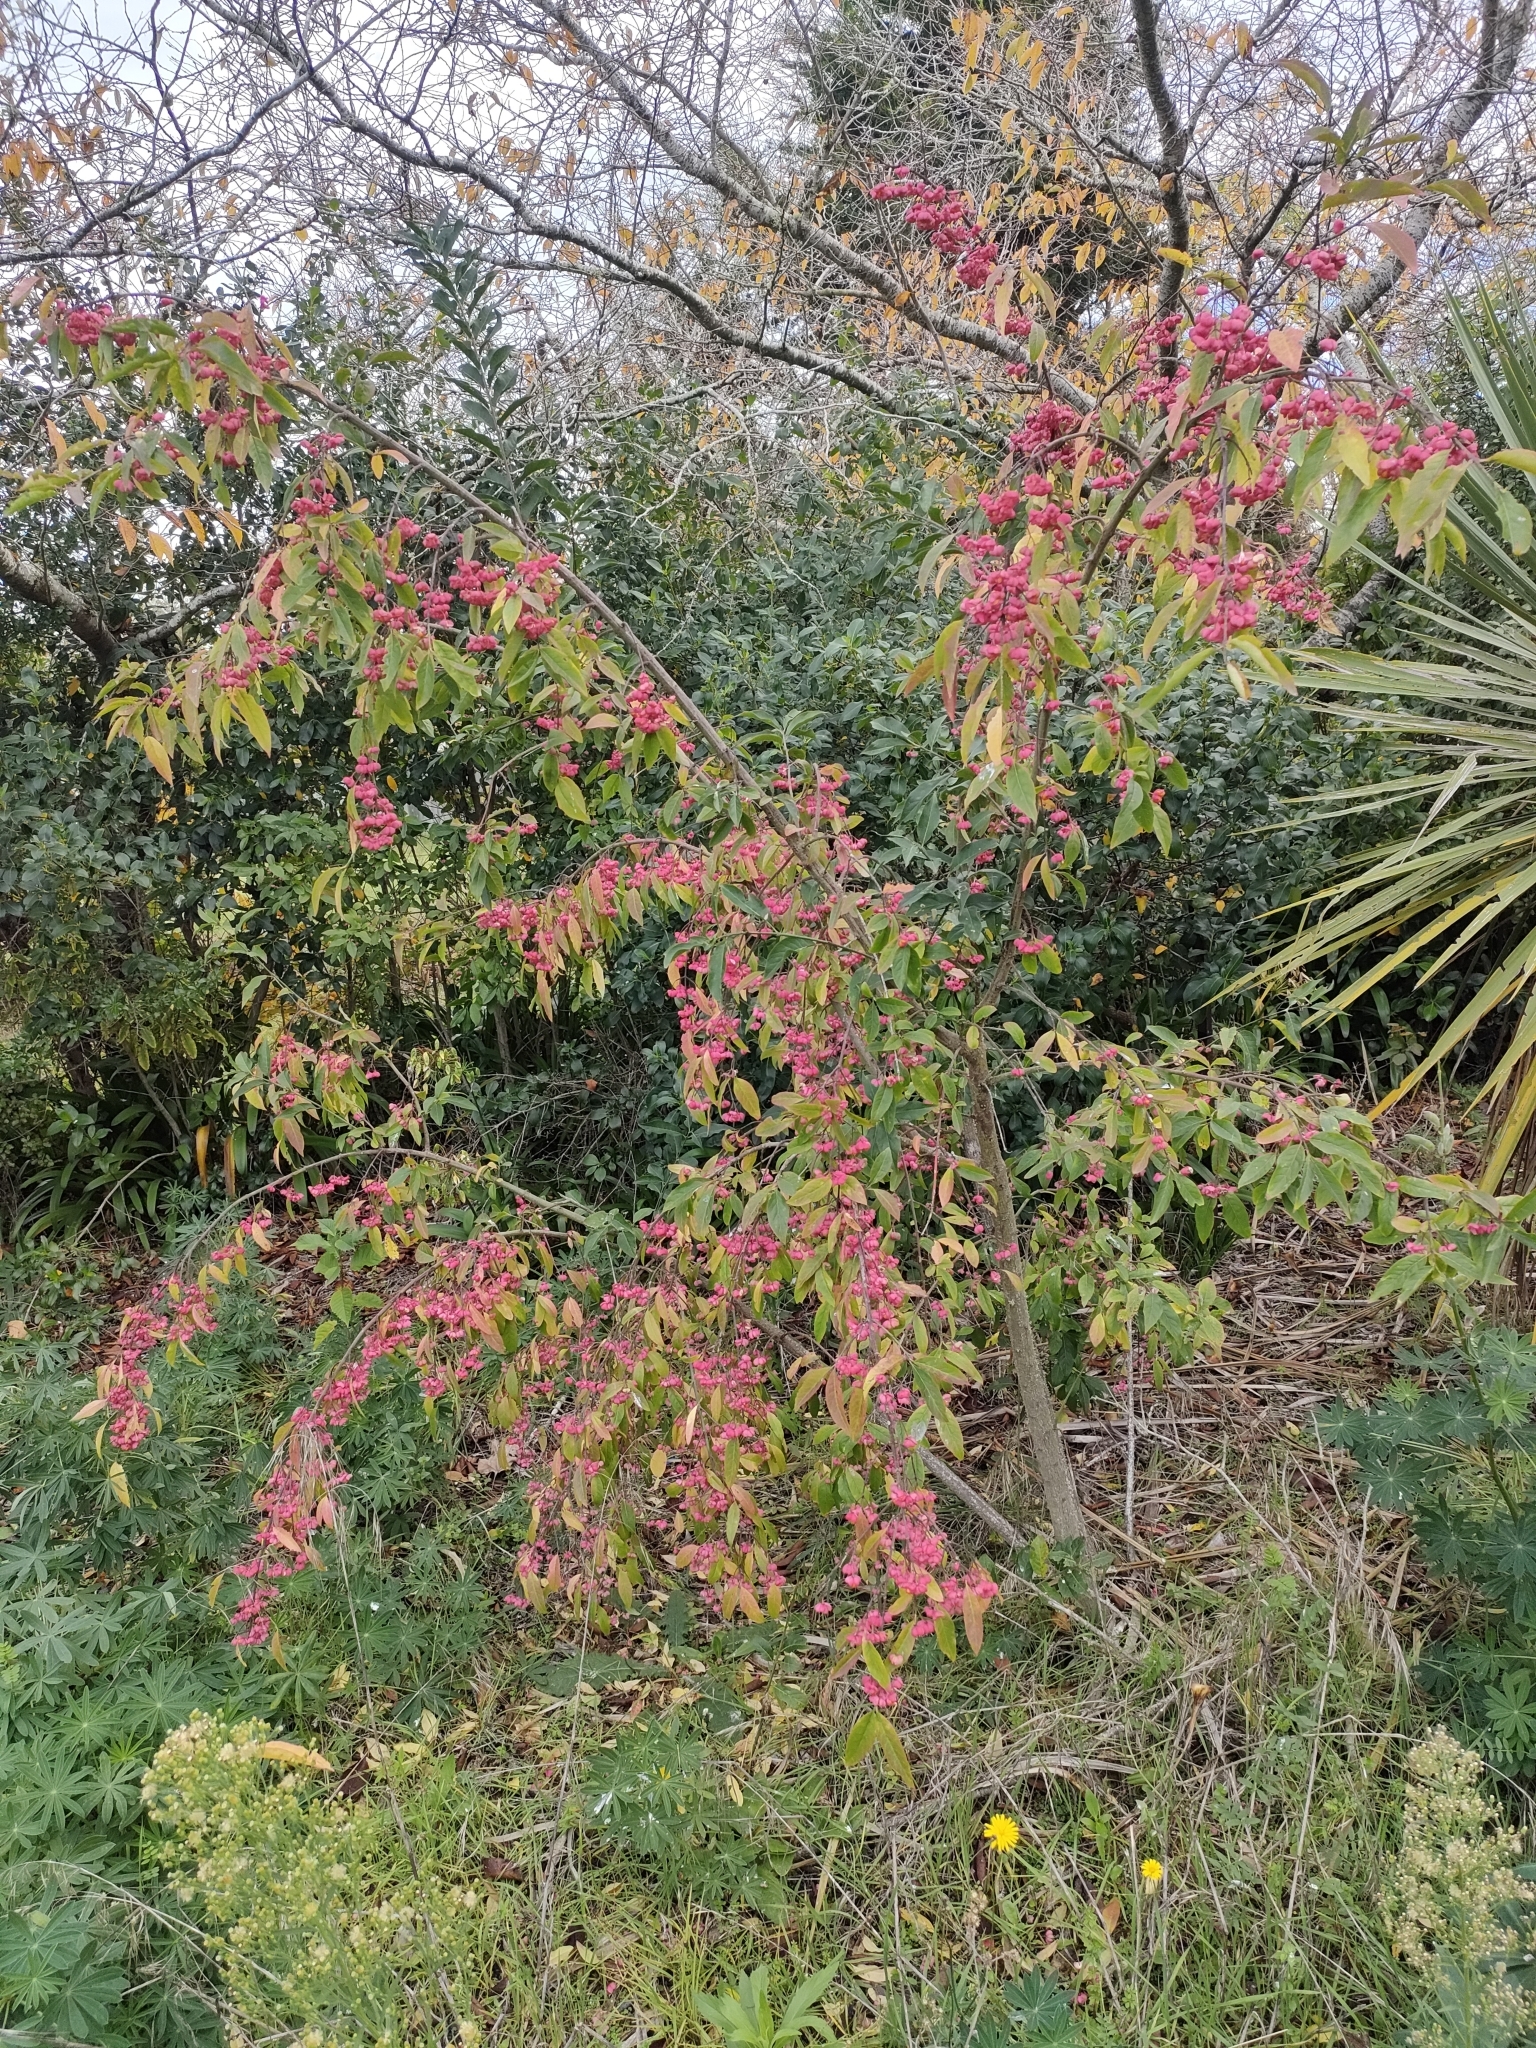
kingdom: Plantae
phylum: Tracheophyta
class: Magnoliopsida
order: Celastrales
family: Celastraceae
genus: Euonymus
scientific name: Euonymus europaeus
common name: Spindle
